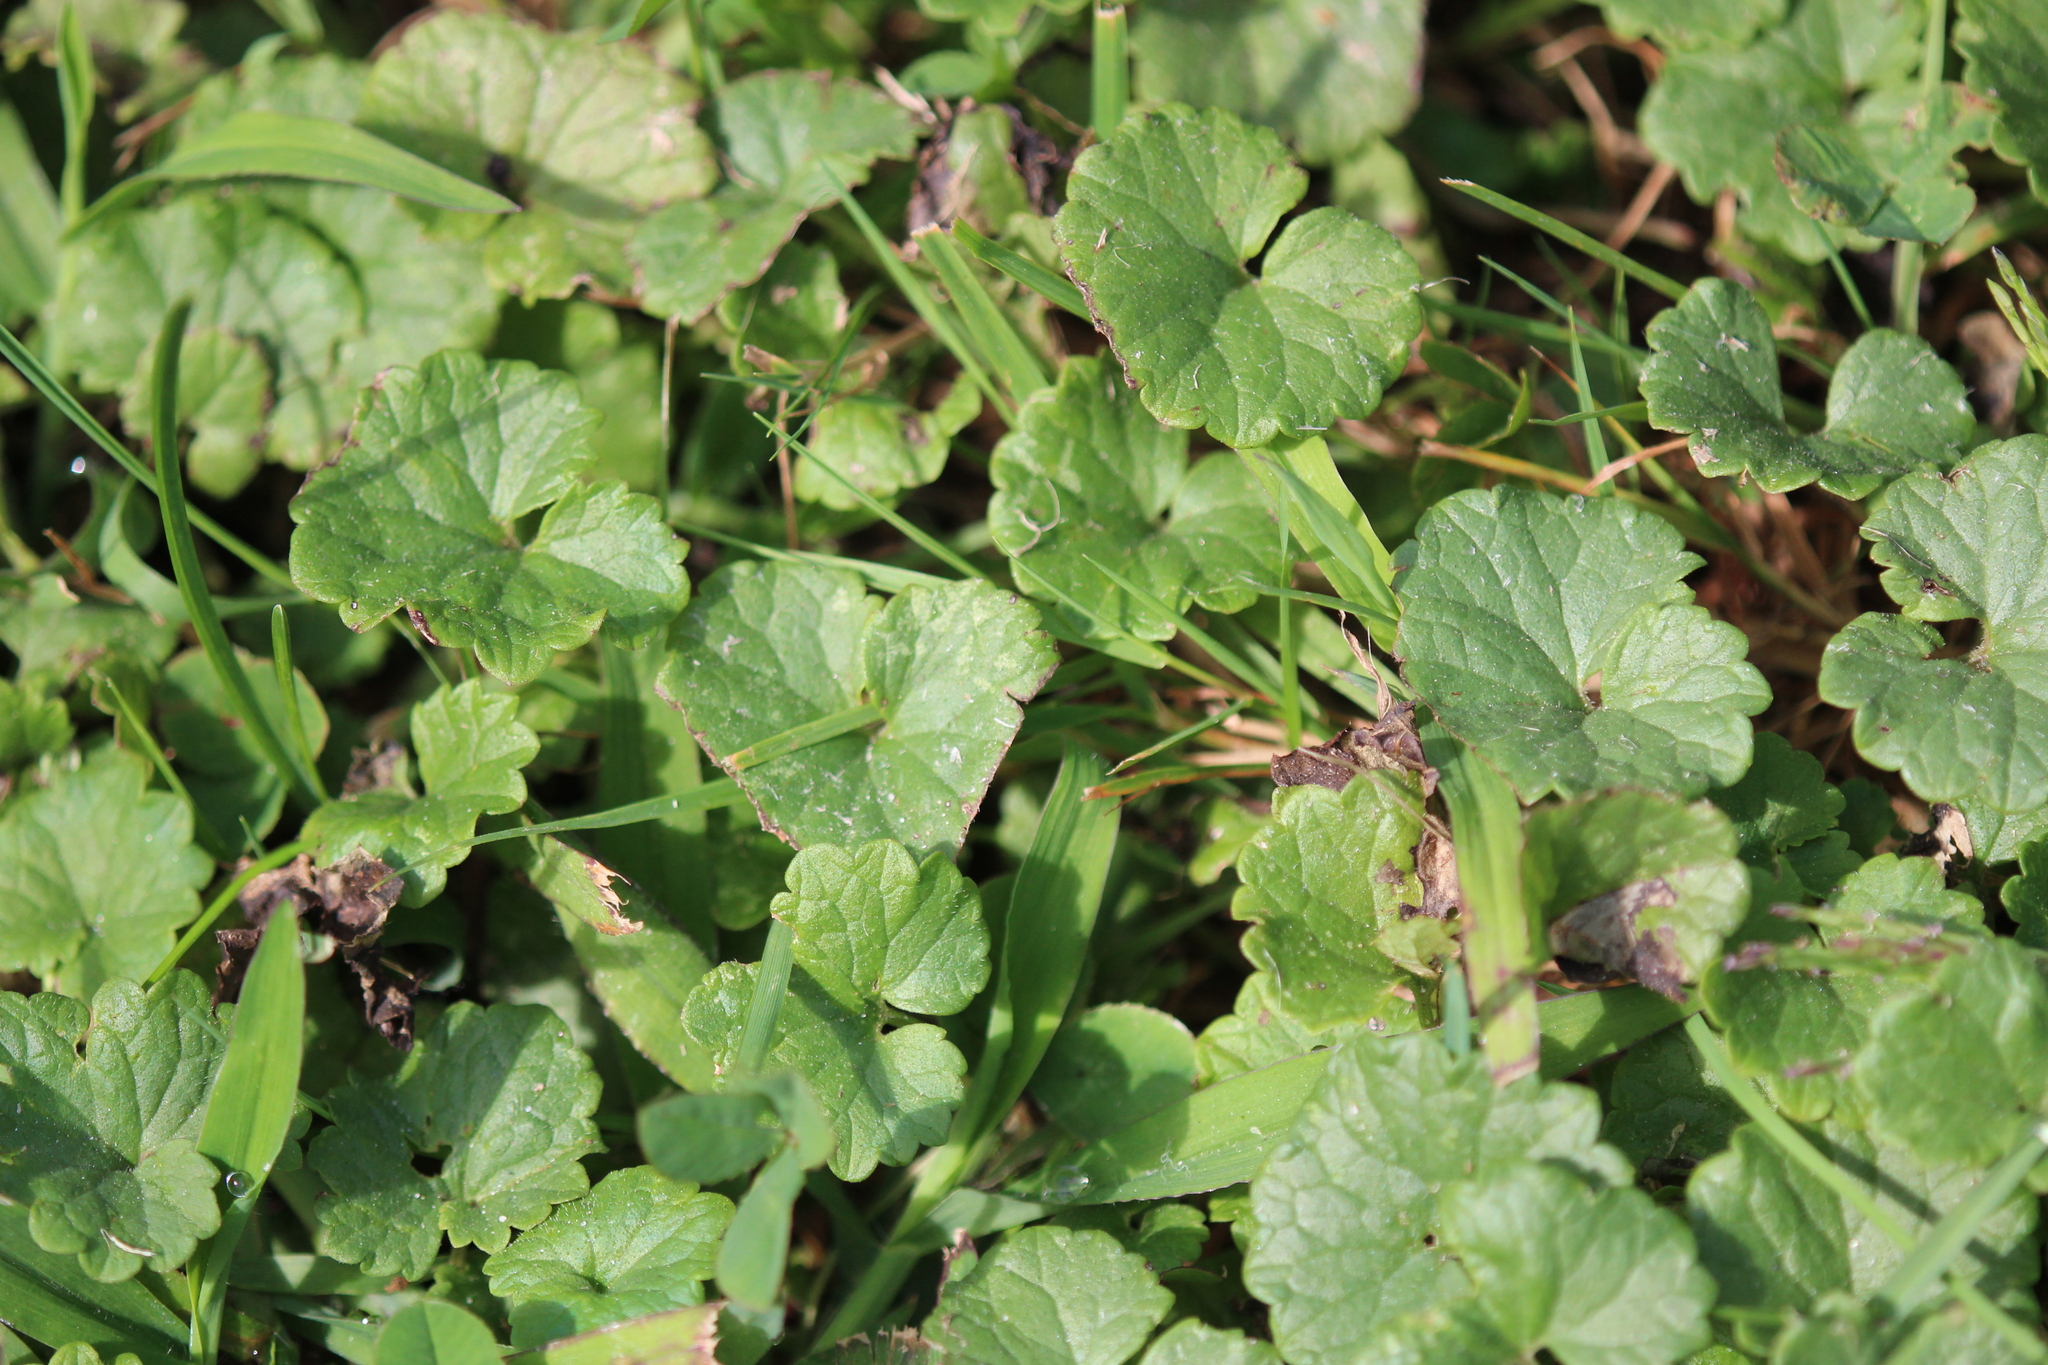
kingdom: Plantae
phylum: Tracheophyta
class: Magnoliopsida
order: Lamiales
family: Lamiaceae
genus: Glechoma
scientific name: Glechoma hederacea
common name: Ground ivy
